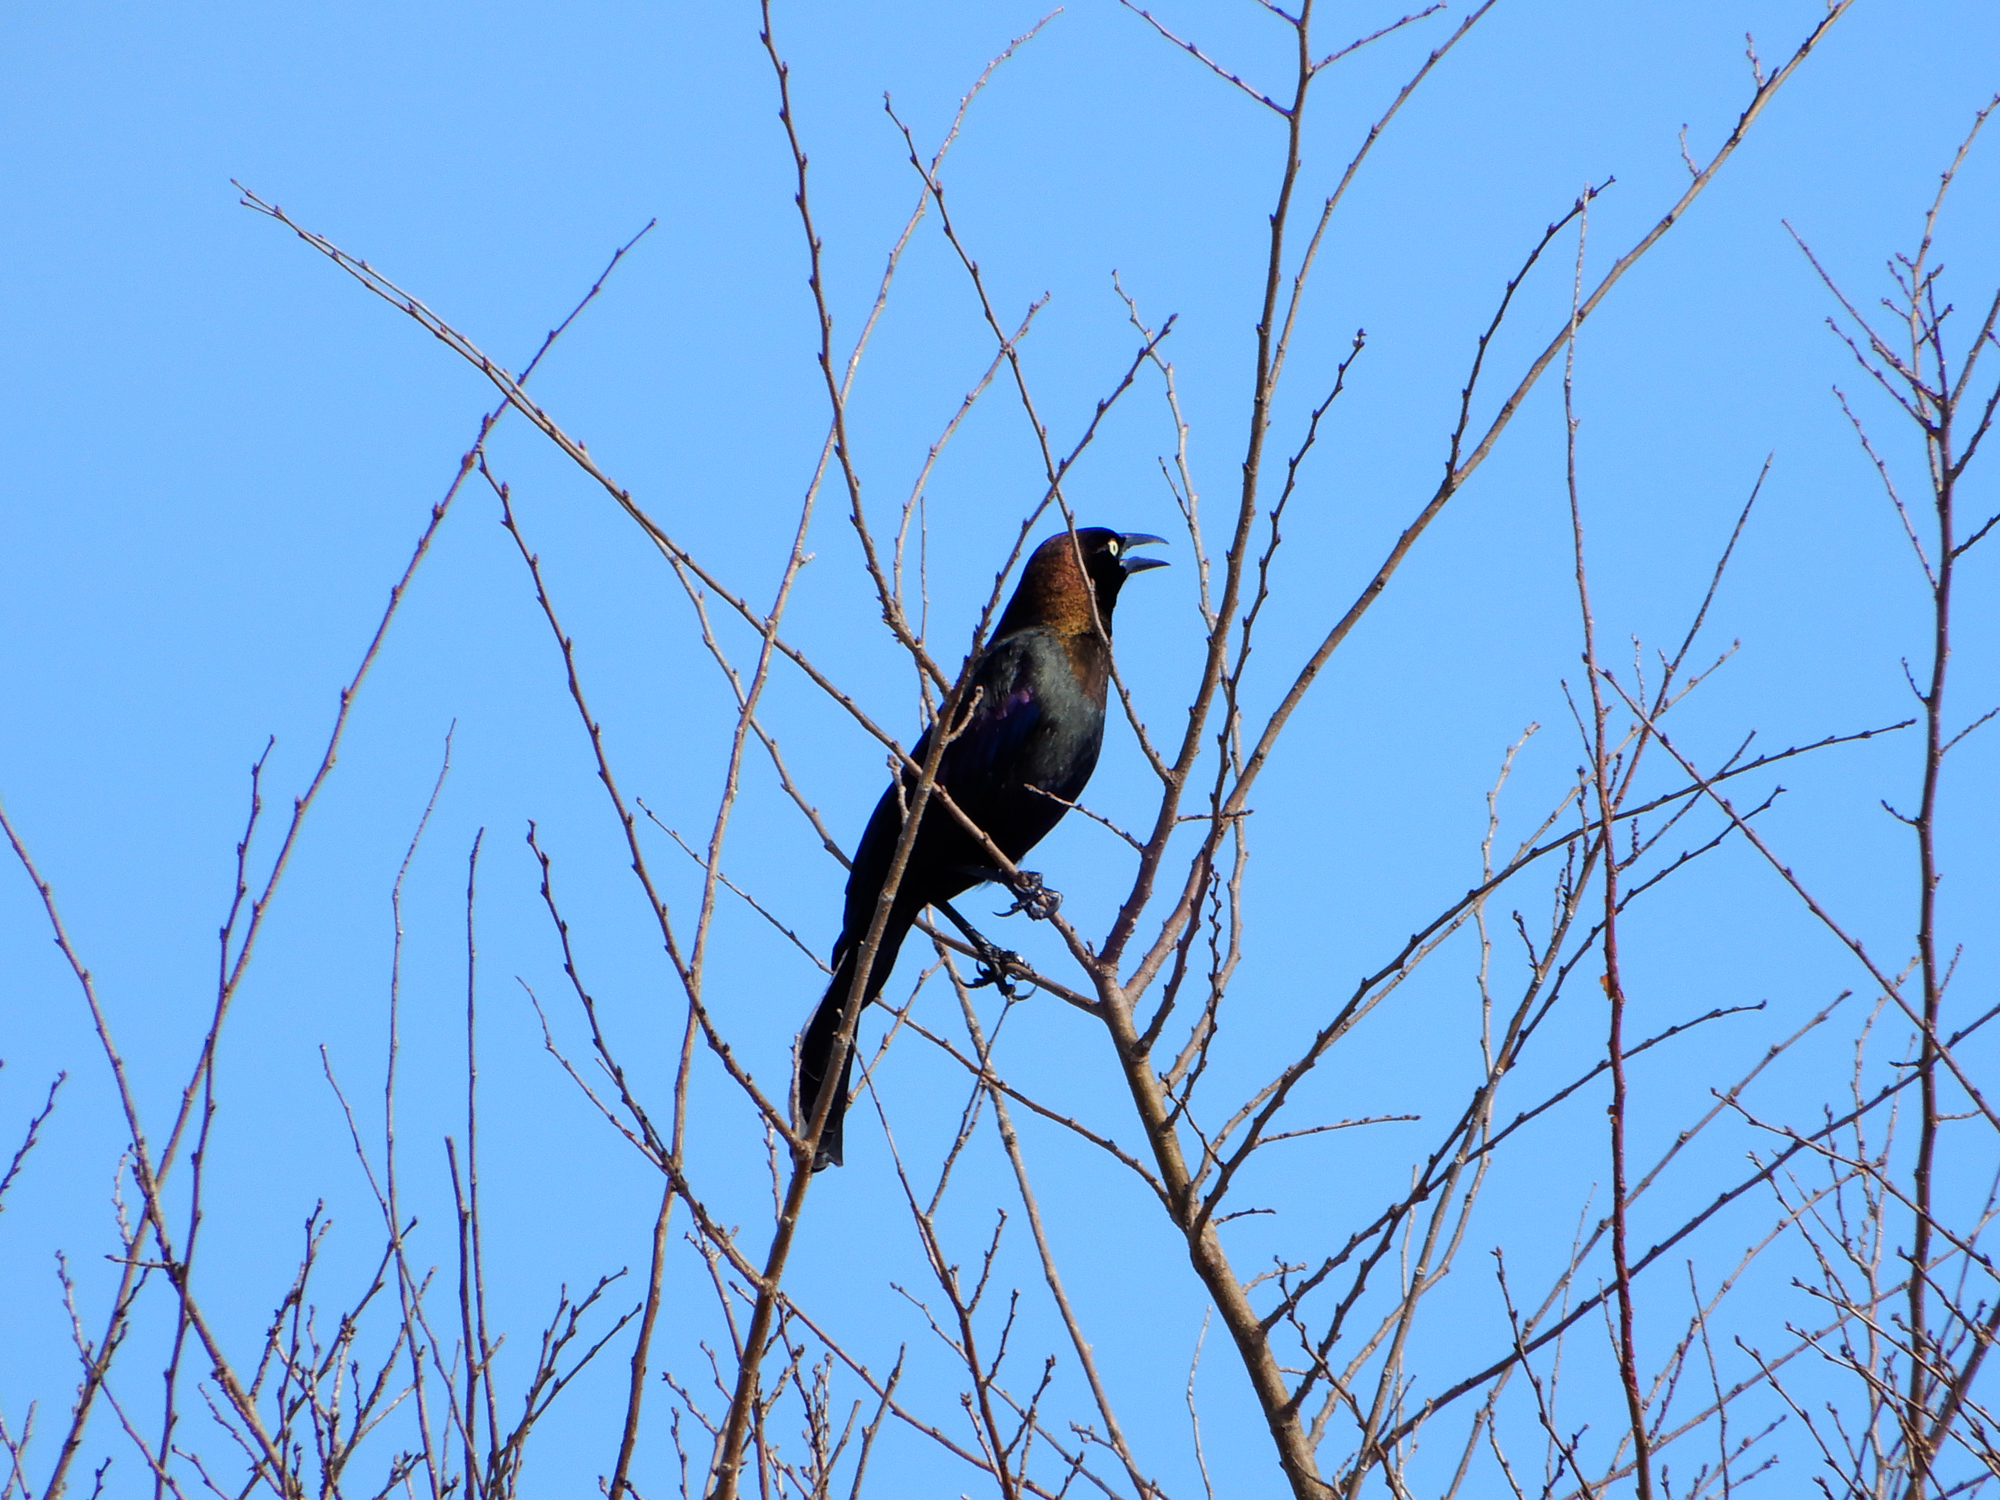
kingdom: Animalia
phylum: Chordata
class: Aves
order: Passeriformes
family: Icteridae
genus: Quiscalus
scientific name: Quiscalus quiscula
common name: Common grackle
